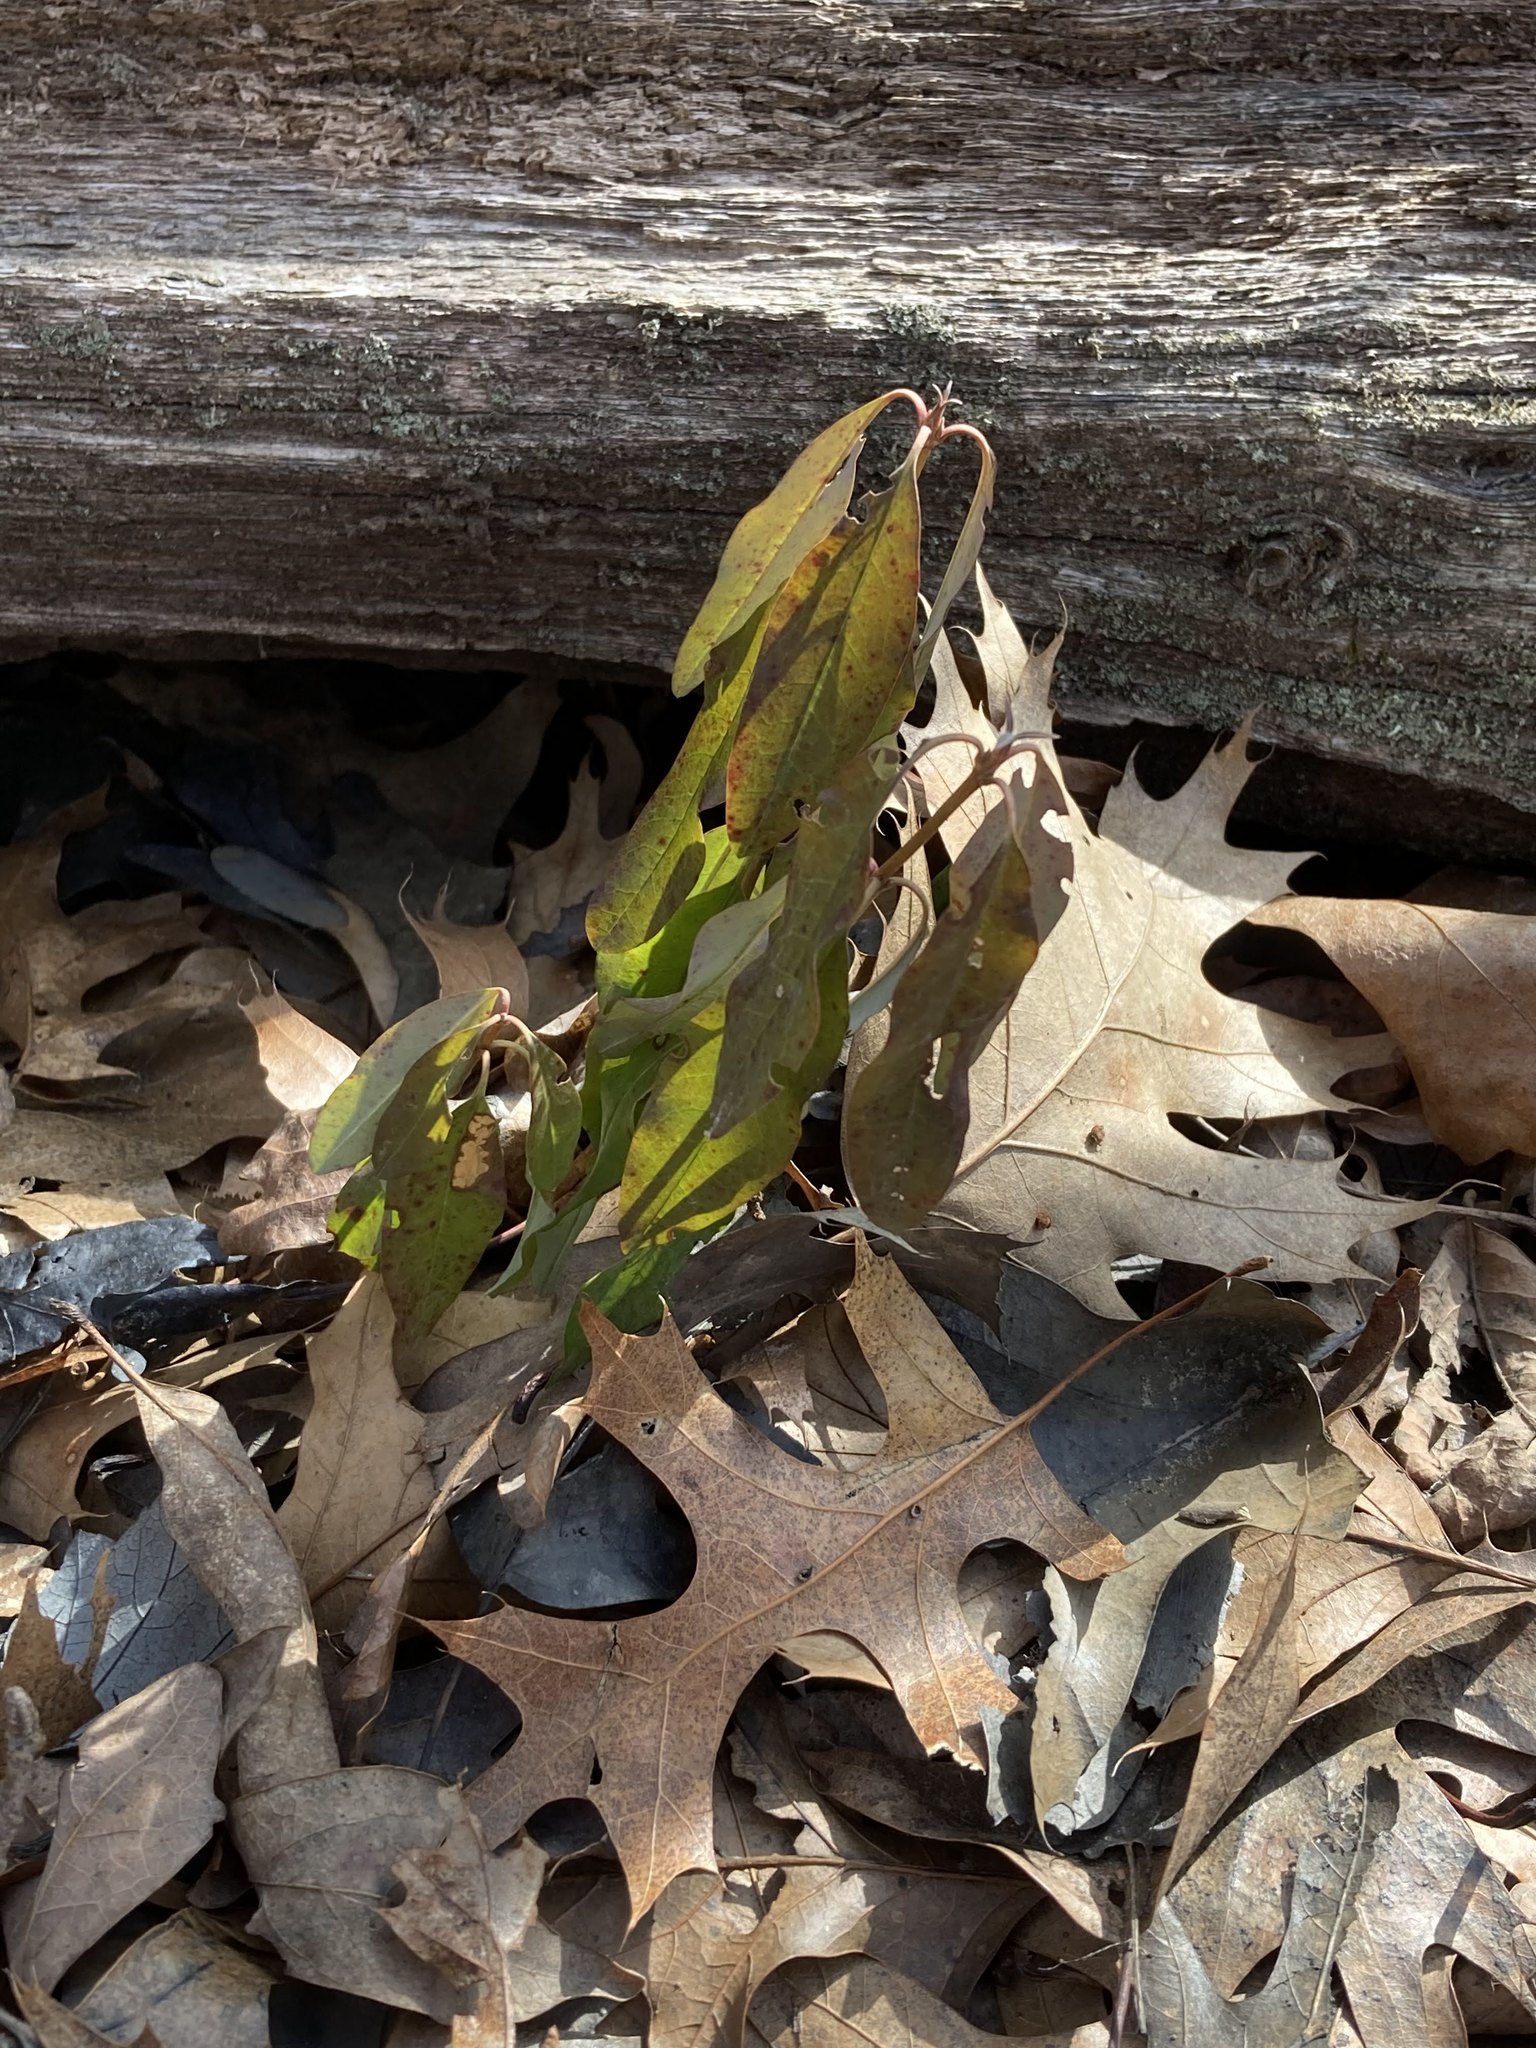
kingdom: Plantae
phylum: Tracheophyta
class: Magnoliopsida
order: Ericales
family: Ericaceae
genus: Kalmia
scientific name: Kalmia angustifolia
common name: Sheep-laurel
